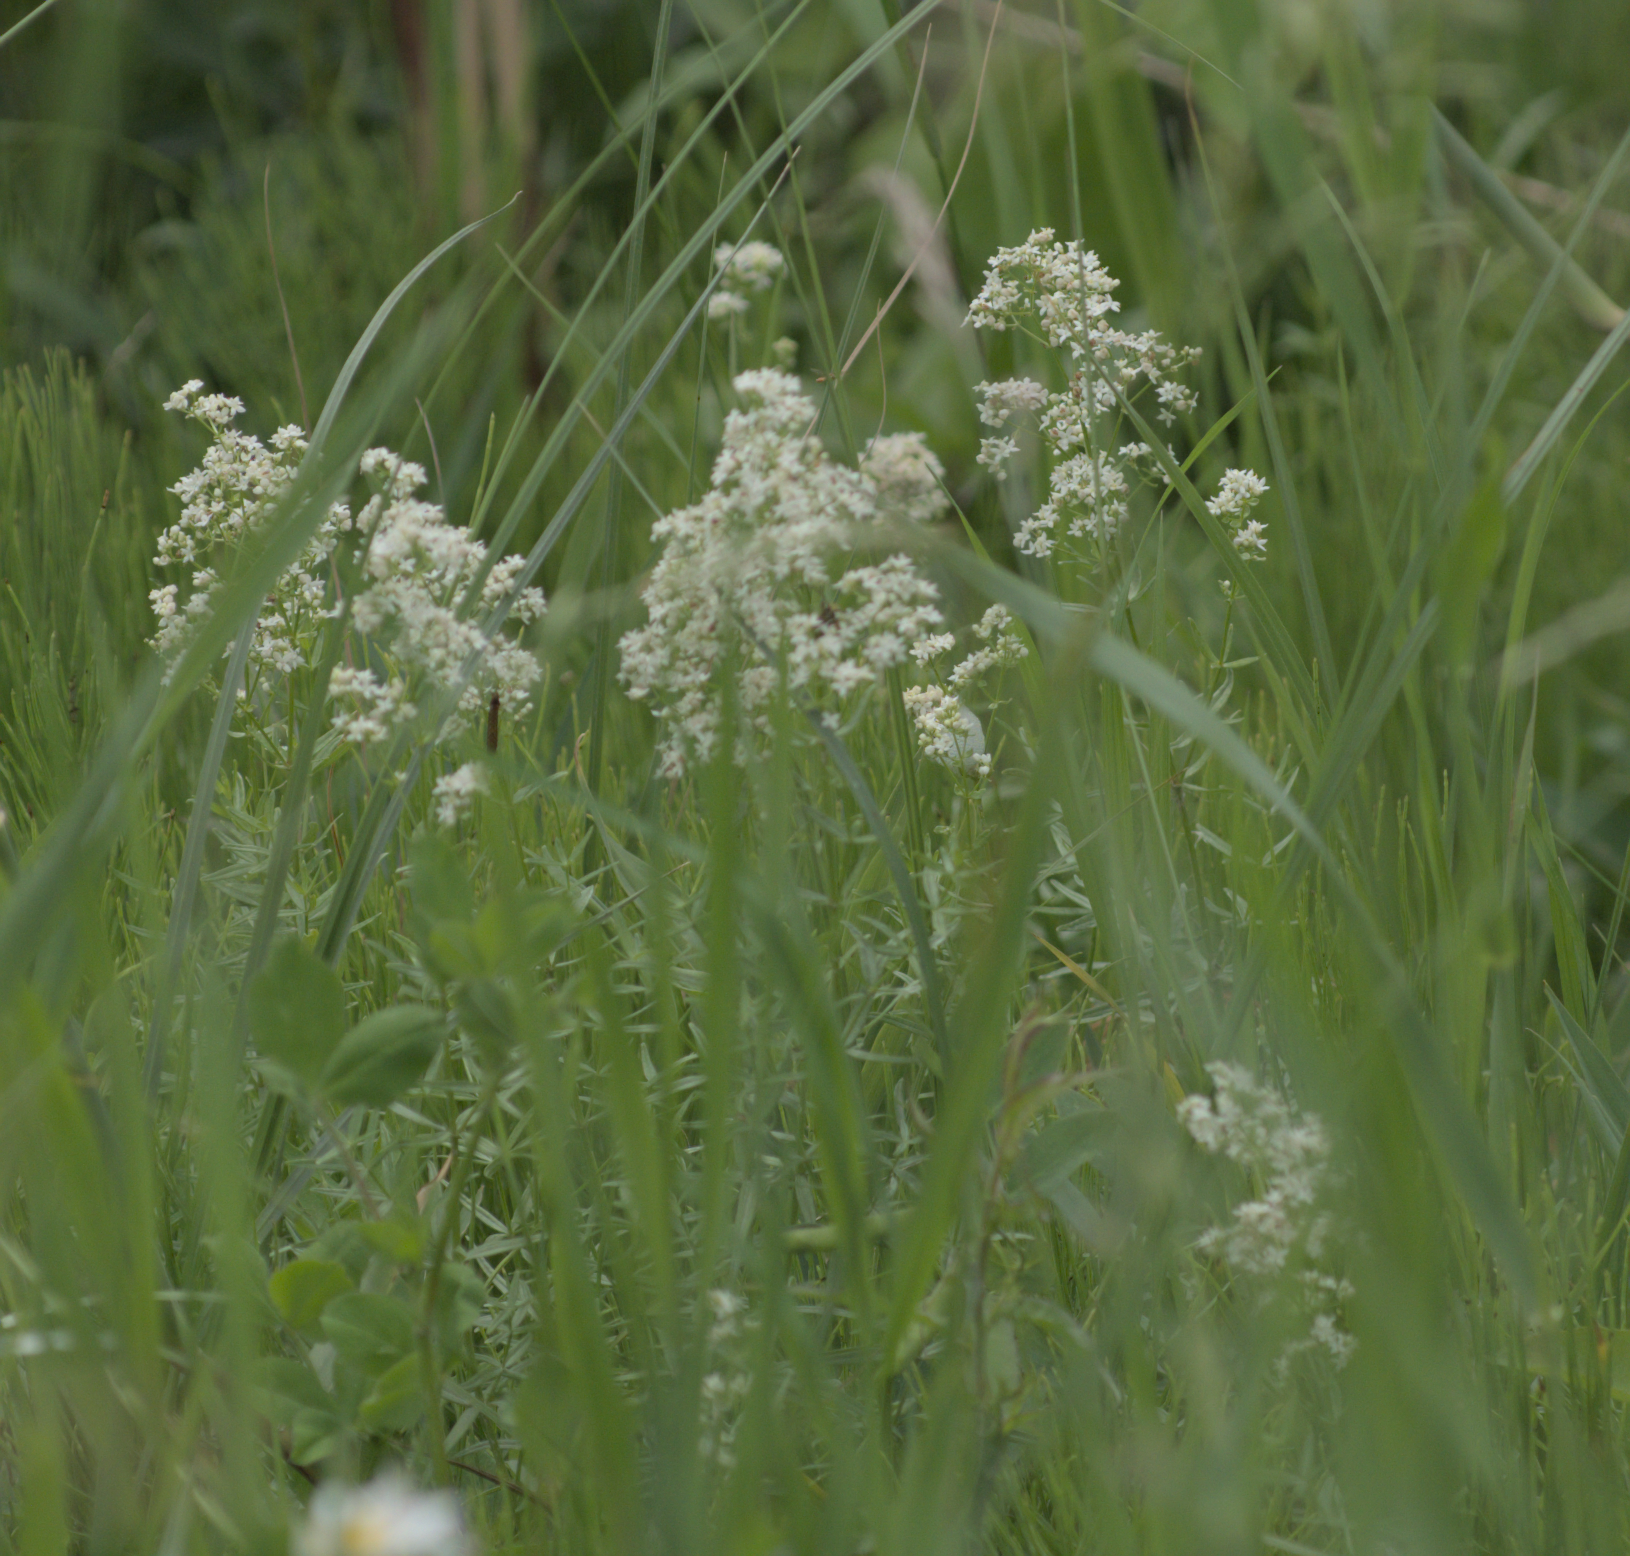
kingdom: Plantae
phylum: Tracheophyta
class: Magnoliopsida
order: Gentianales
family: Rubiaceae
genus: Galium
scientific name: Galium boreale
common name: Northern bedstraw
